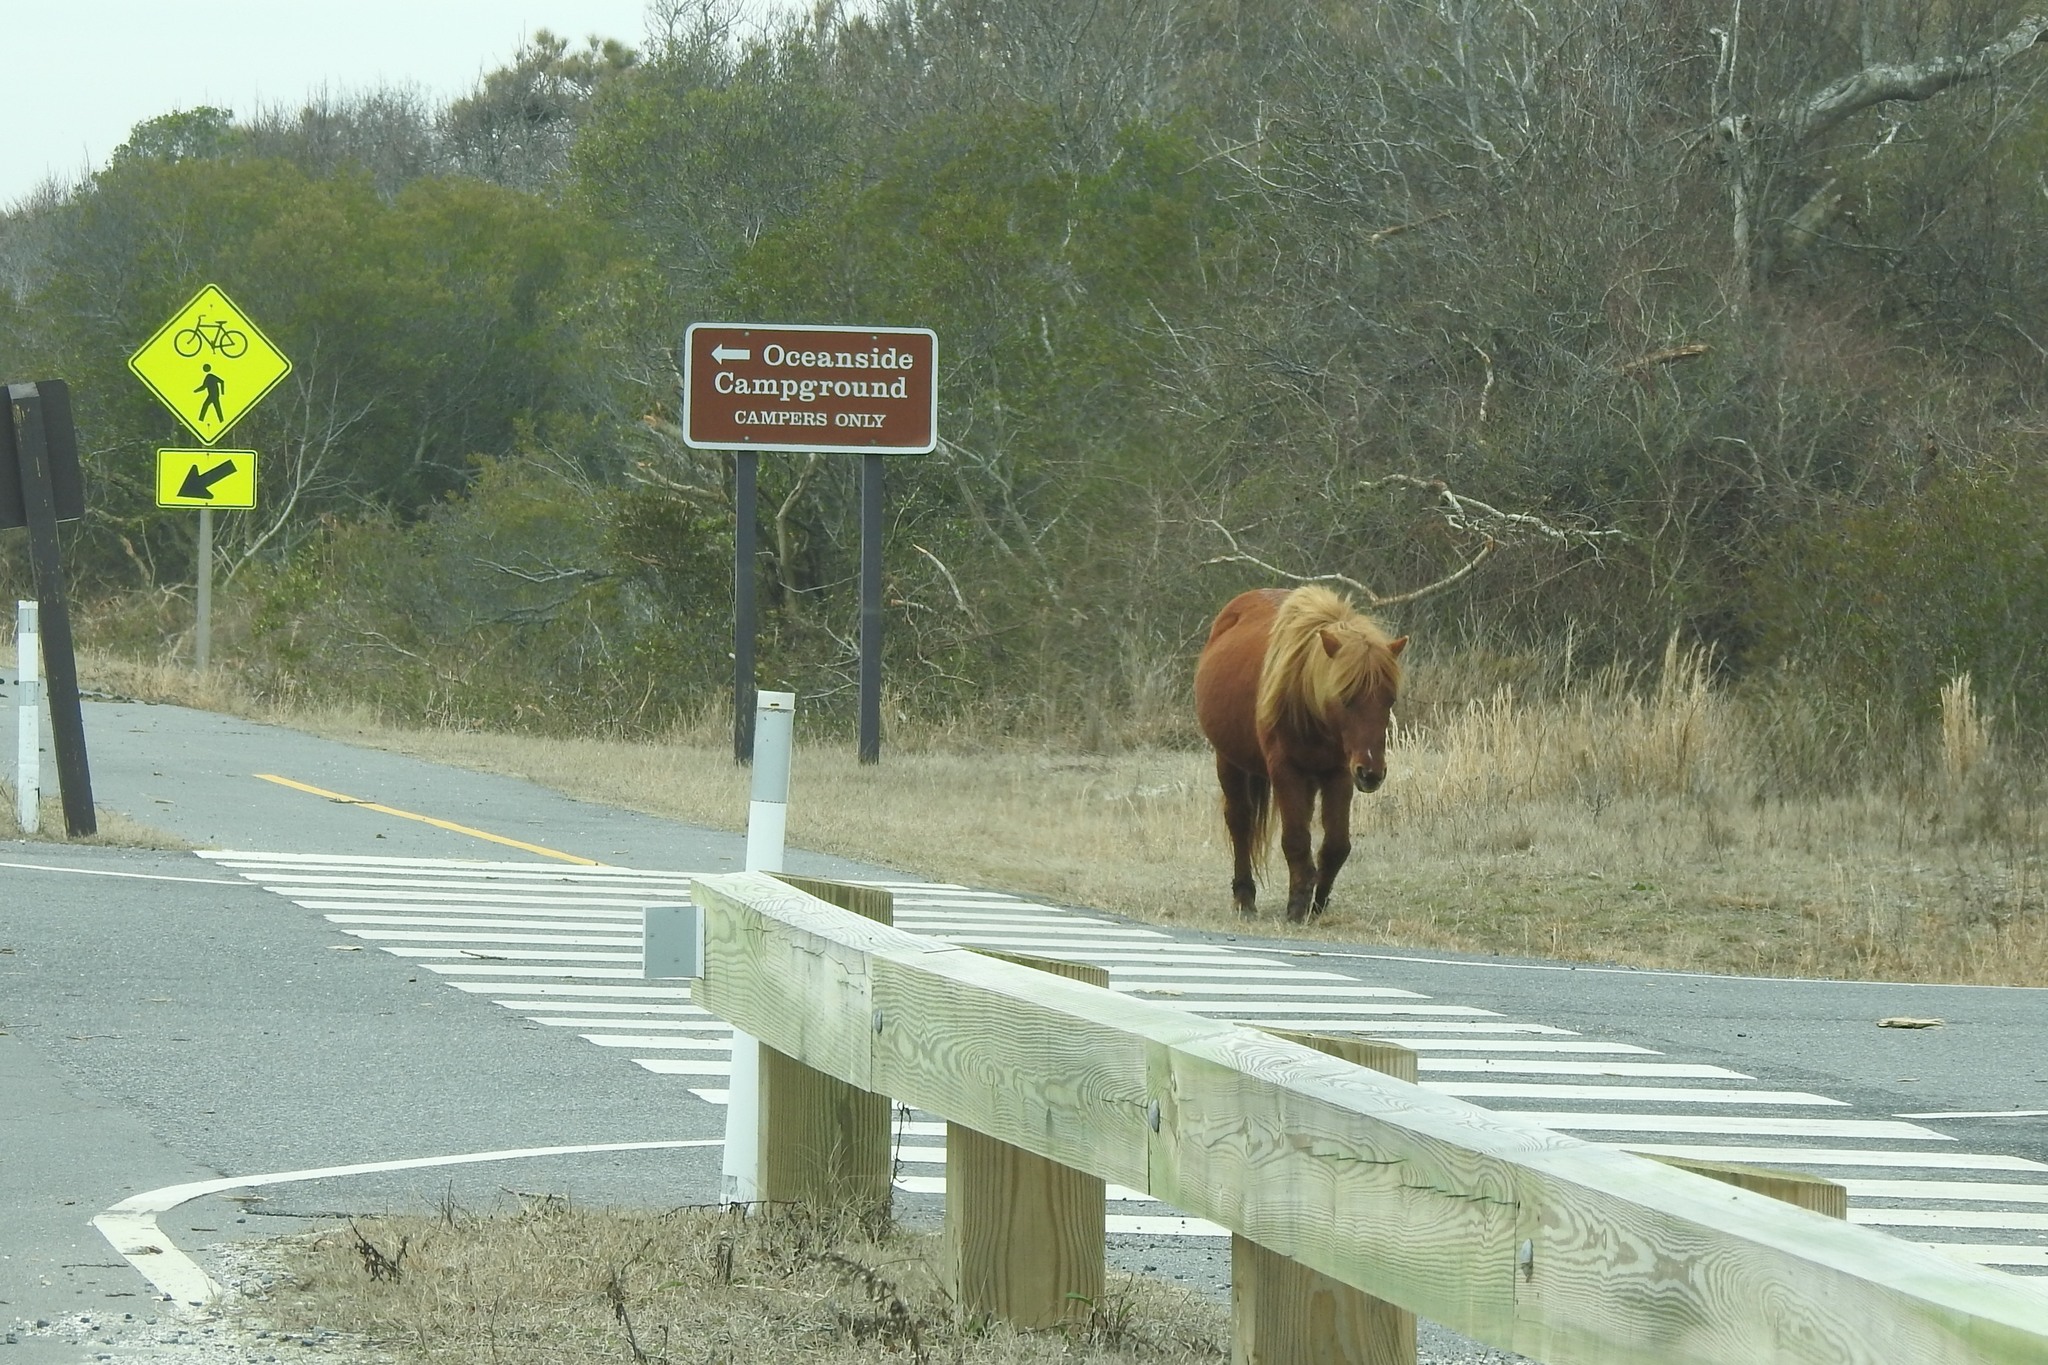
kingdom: Animalia
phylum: Chordata
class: Mammalia
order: Perissodactyla
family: Equidae
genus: Equus
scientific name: Equus caballus
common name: Horse
